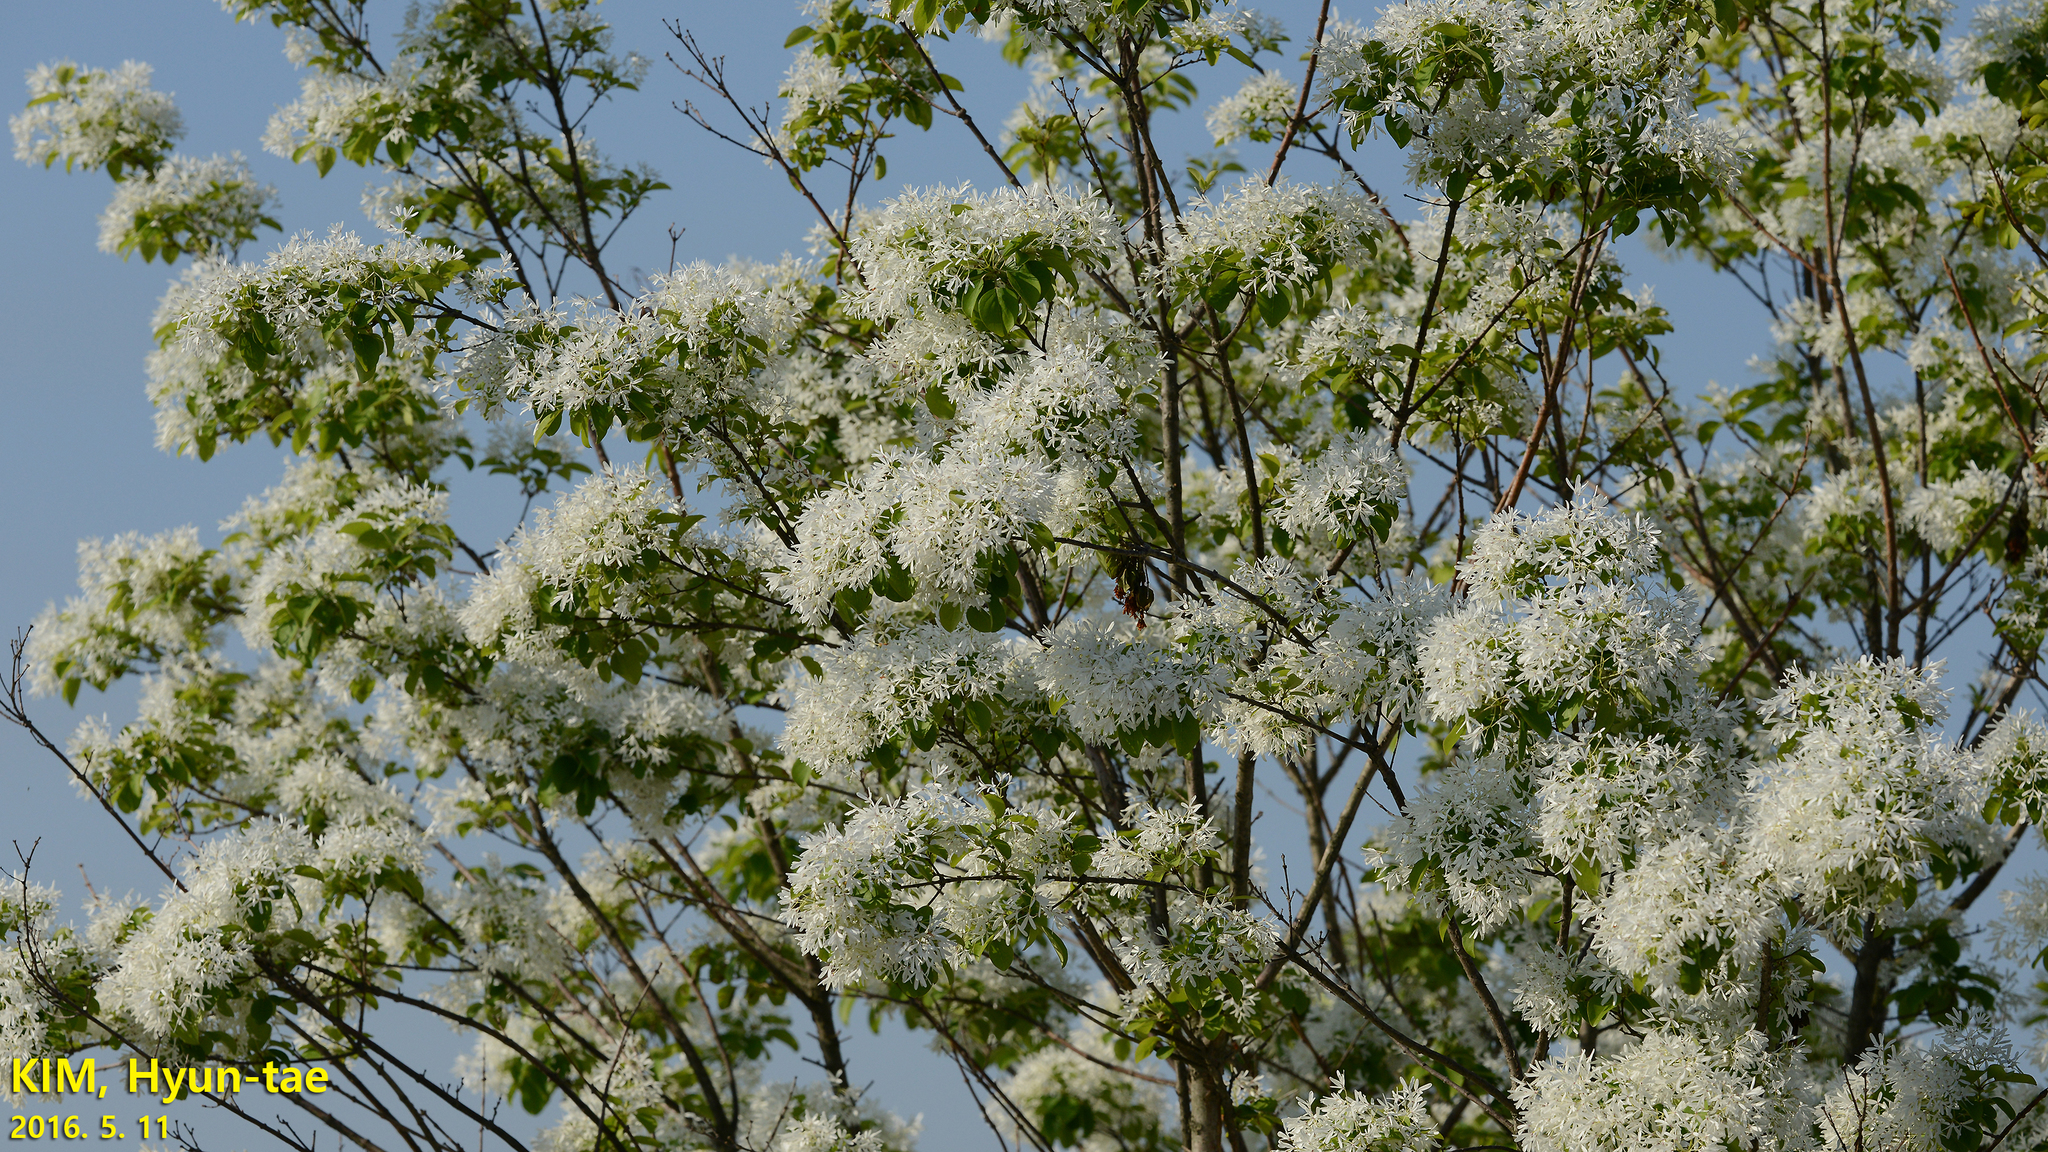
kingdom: Plantae
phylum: Tracheophyta
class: Magnoliopsida
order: Lamiales
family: Oleaceae
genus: Chionanthus
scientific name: Chionanthus retusus
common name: Chinese fringetree
